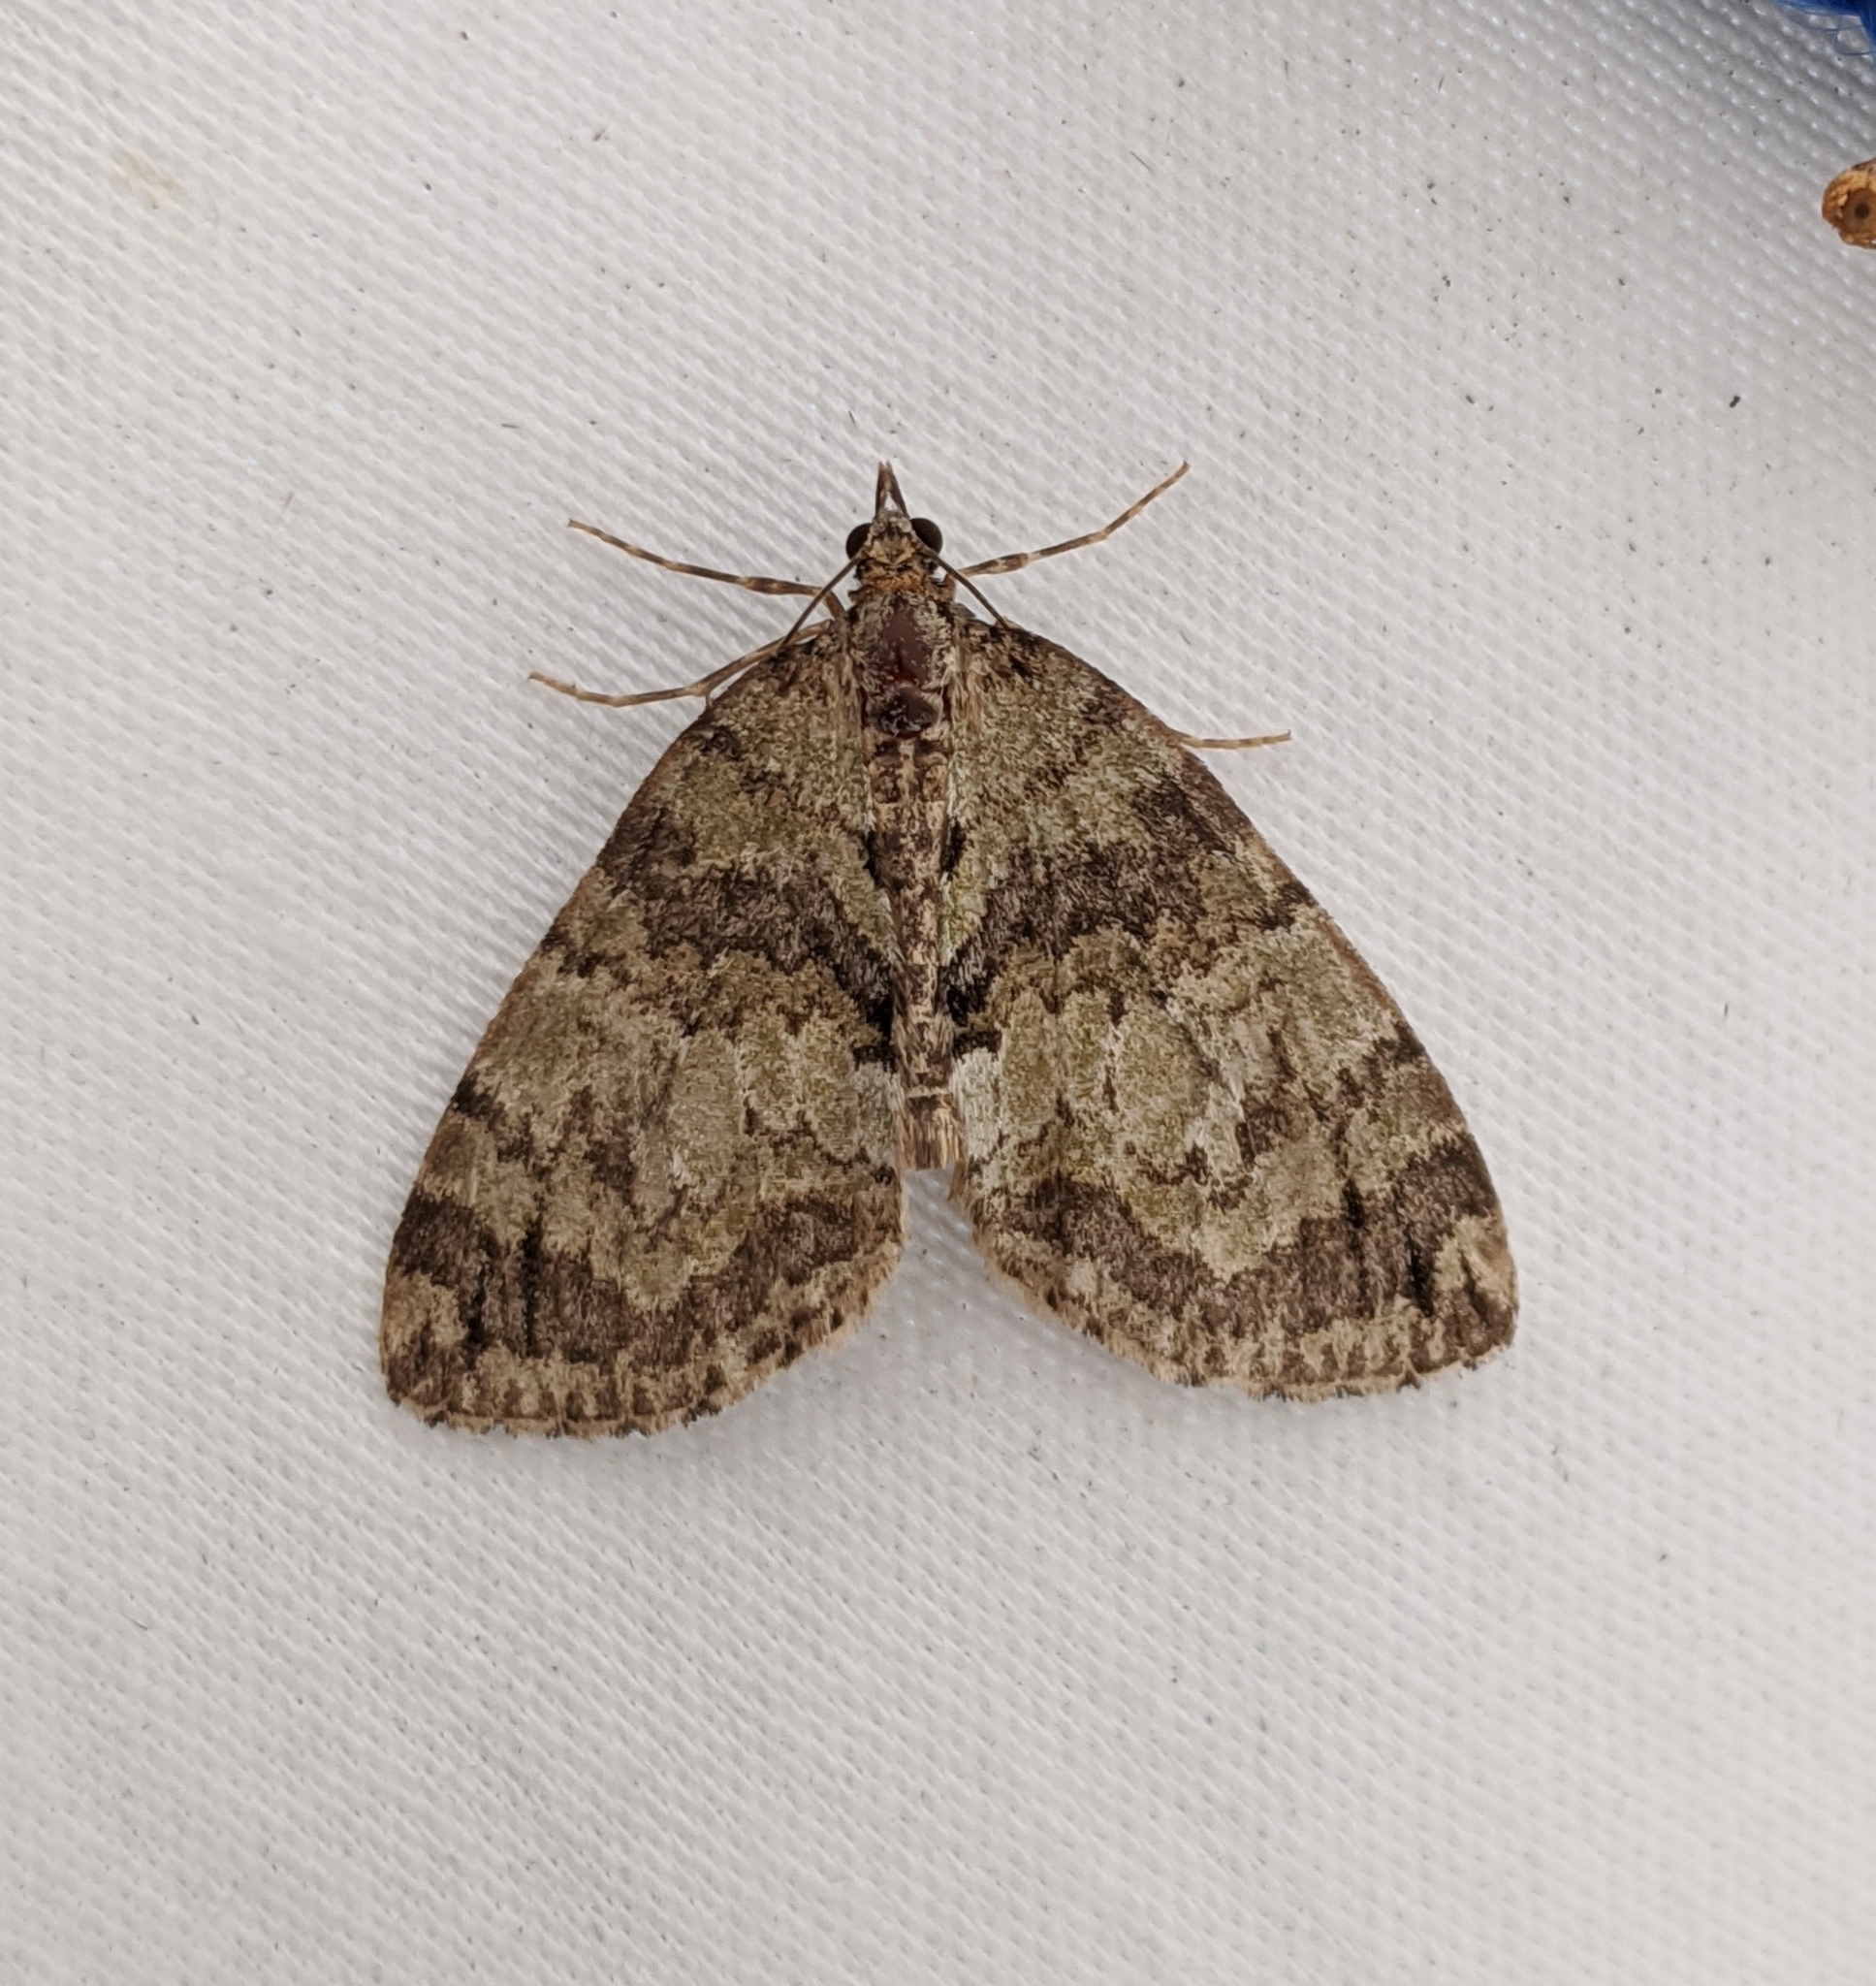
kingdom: Animalia
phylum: Arthropoda
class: Insecta
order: Lepidoptera
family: Geometridae
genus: Hydriomena
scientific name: Hydriomena speciosata
